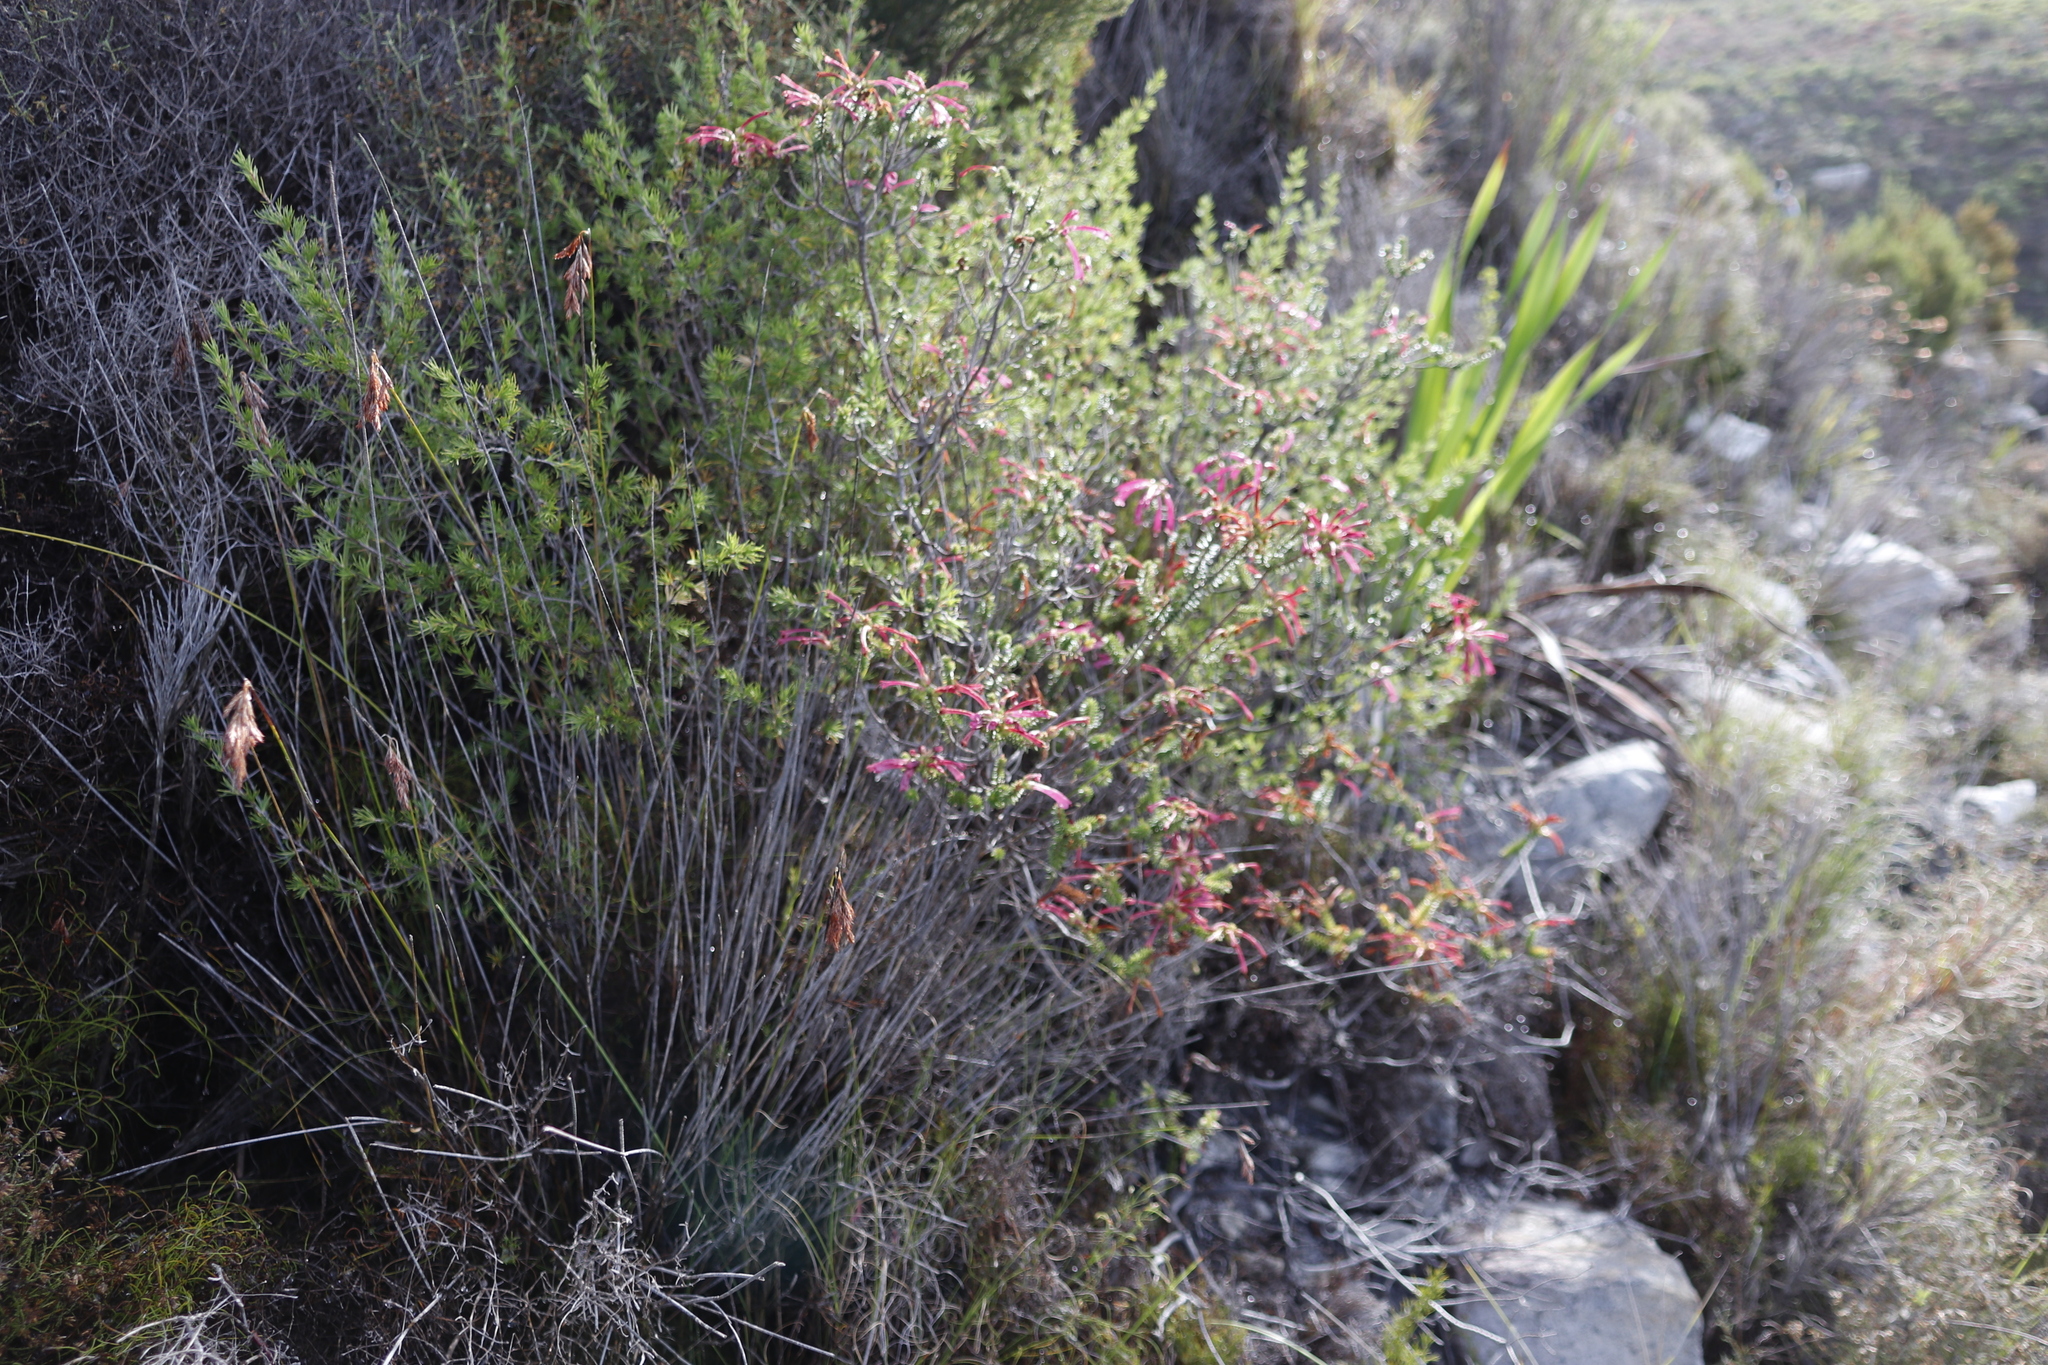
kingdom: Plantae
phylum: Tracheophyta
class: Magnoliopsida
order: Ericales
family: Ericaceae
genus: Erica
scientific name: Erica abietina
